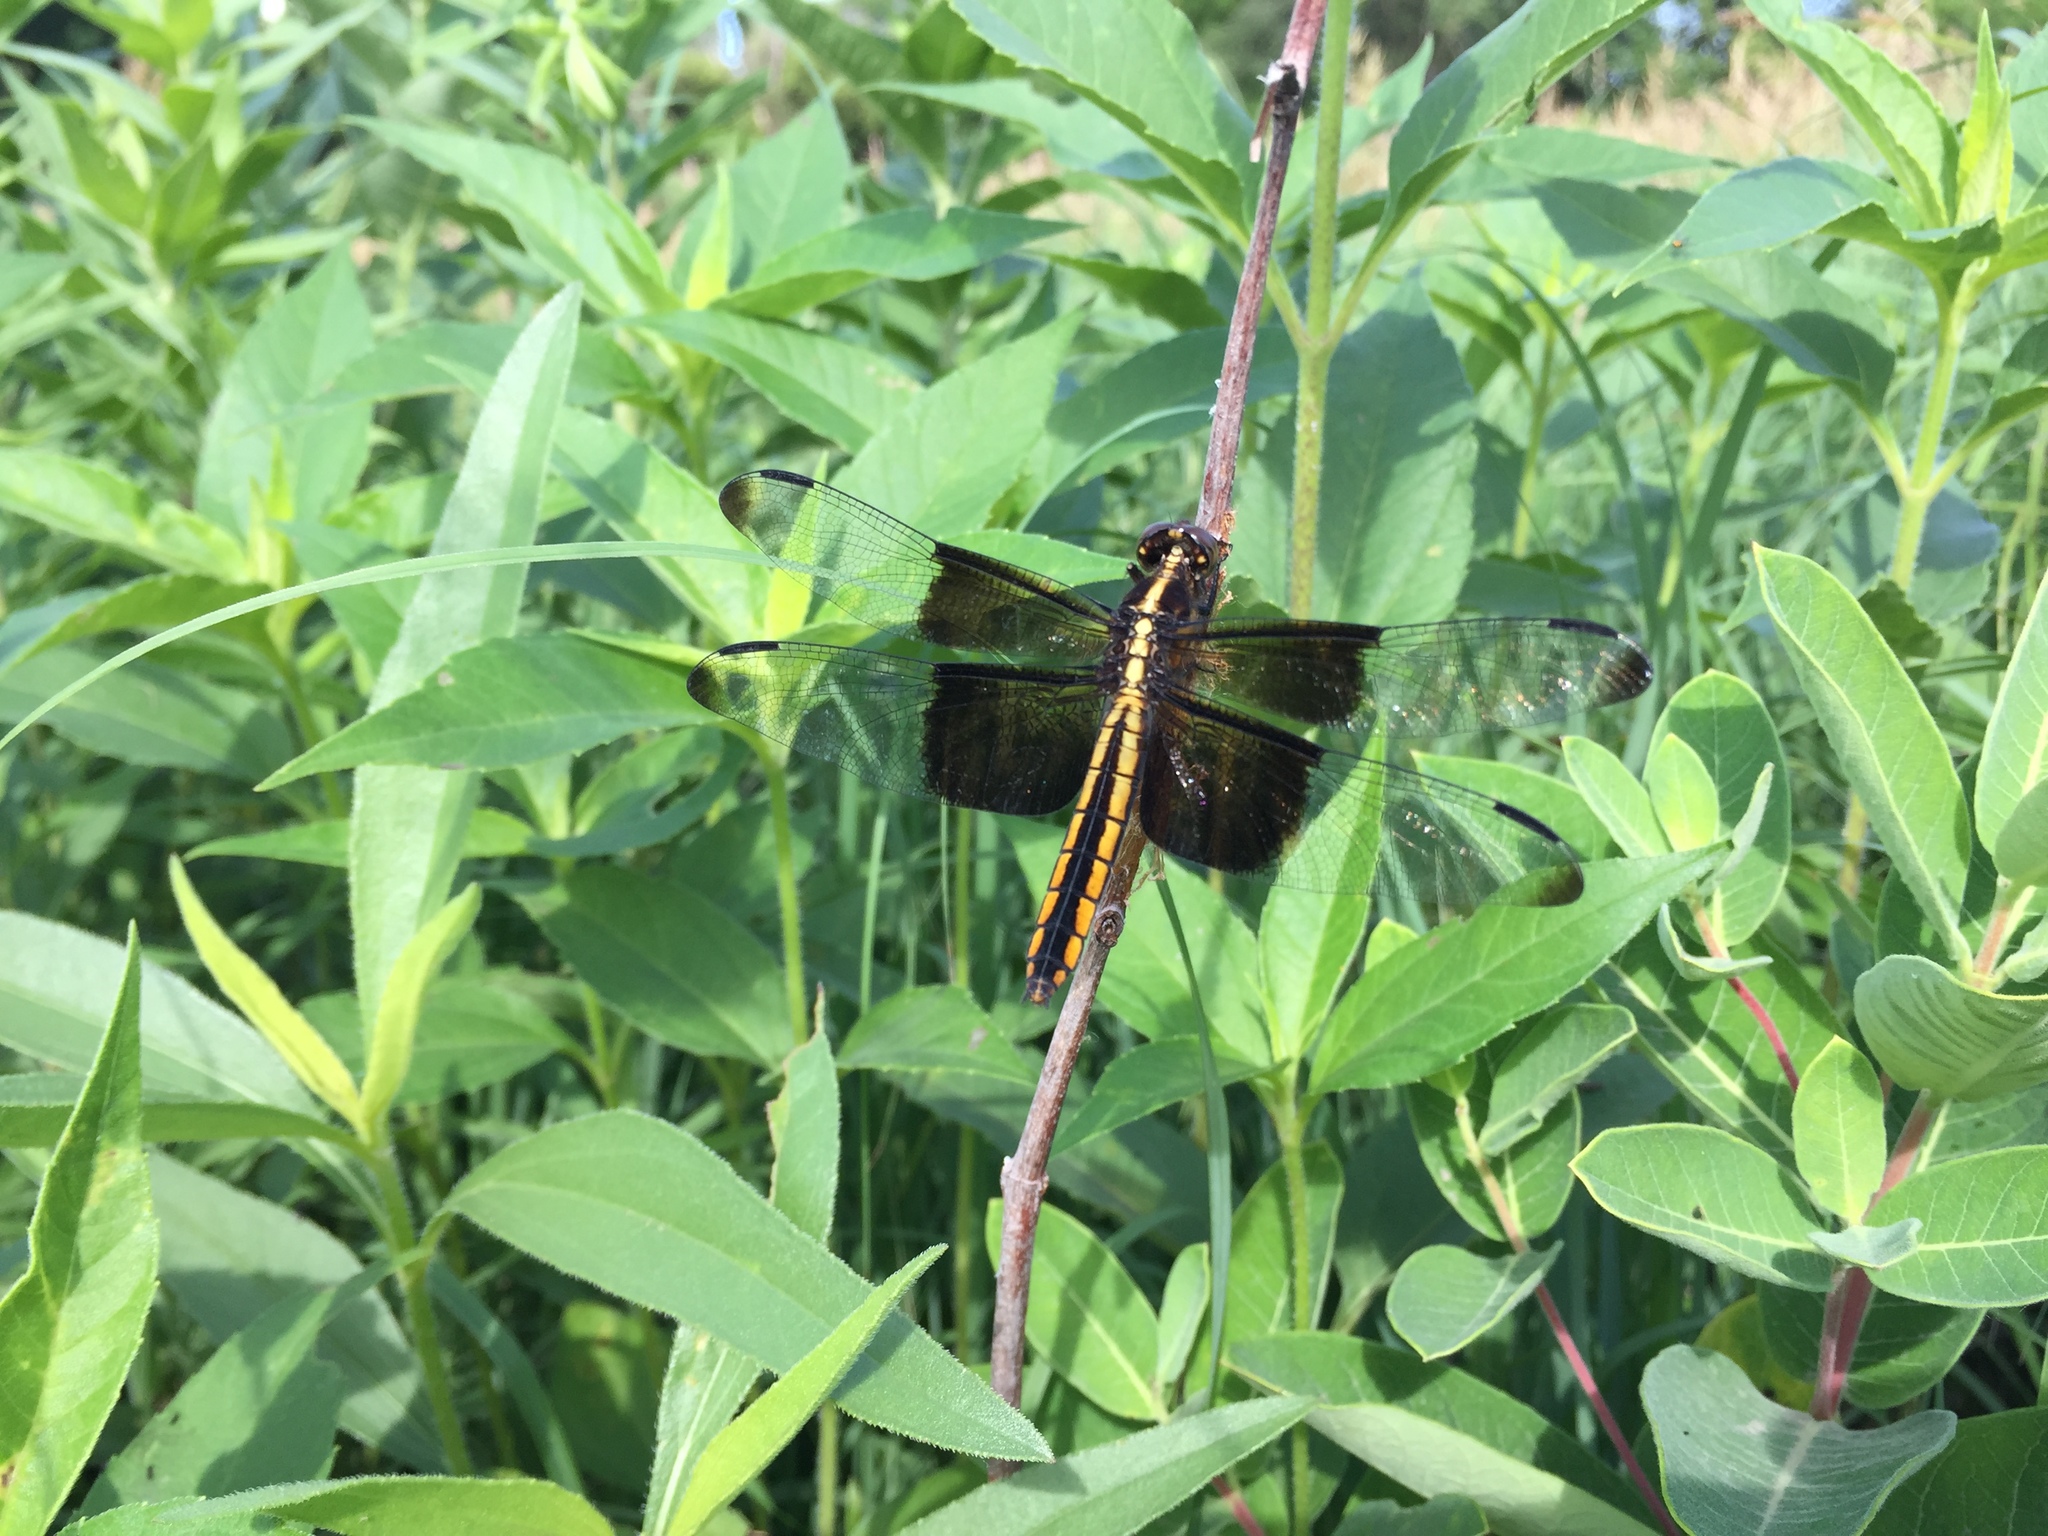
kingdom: Animalia
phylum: Arthropoda
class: Insecta
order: Odonata
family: Libellulidae
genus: Libellula
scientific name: Libellula luctuosa
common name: Widow skimmer
